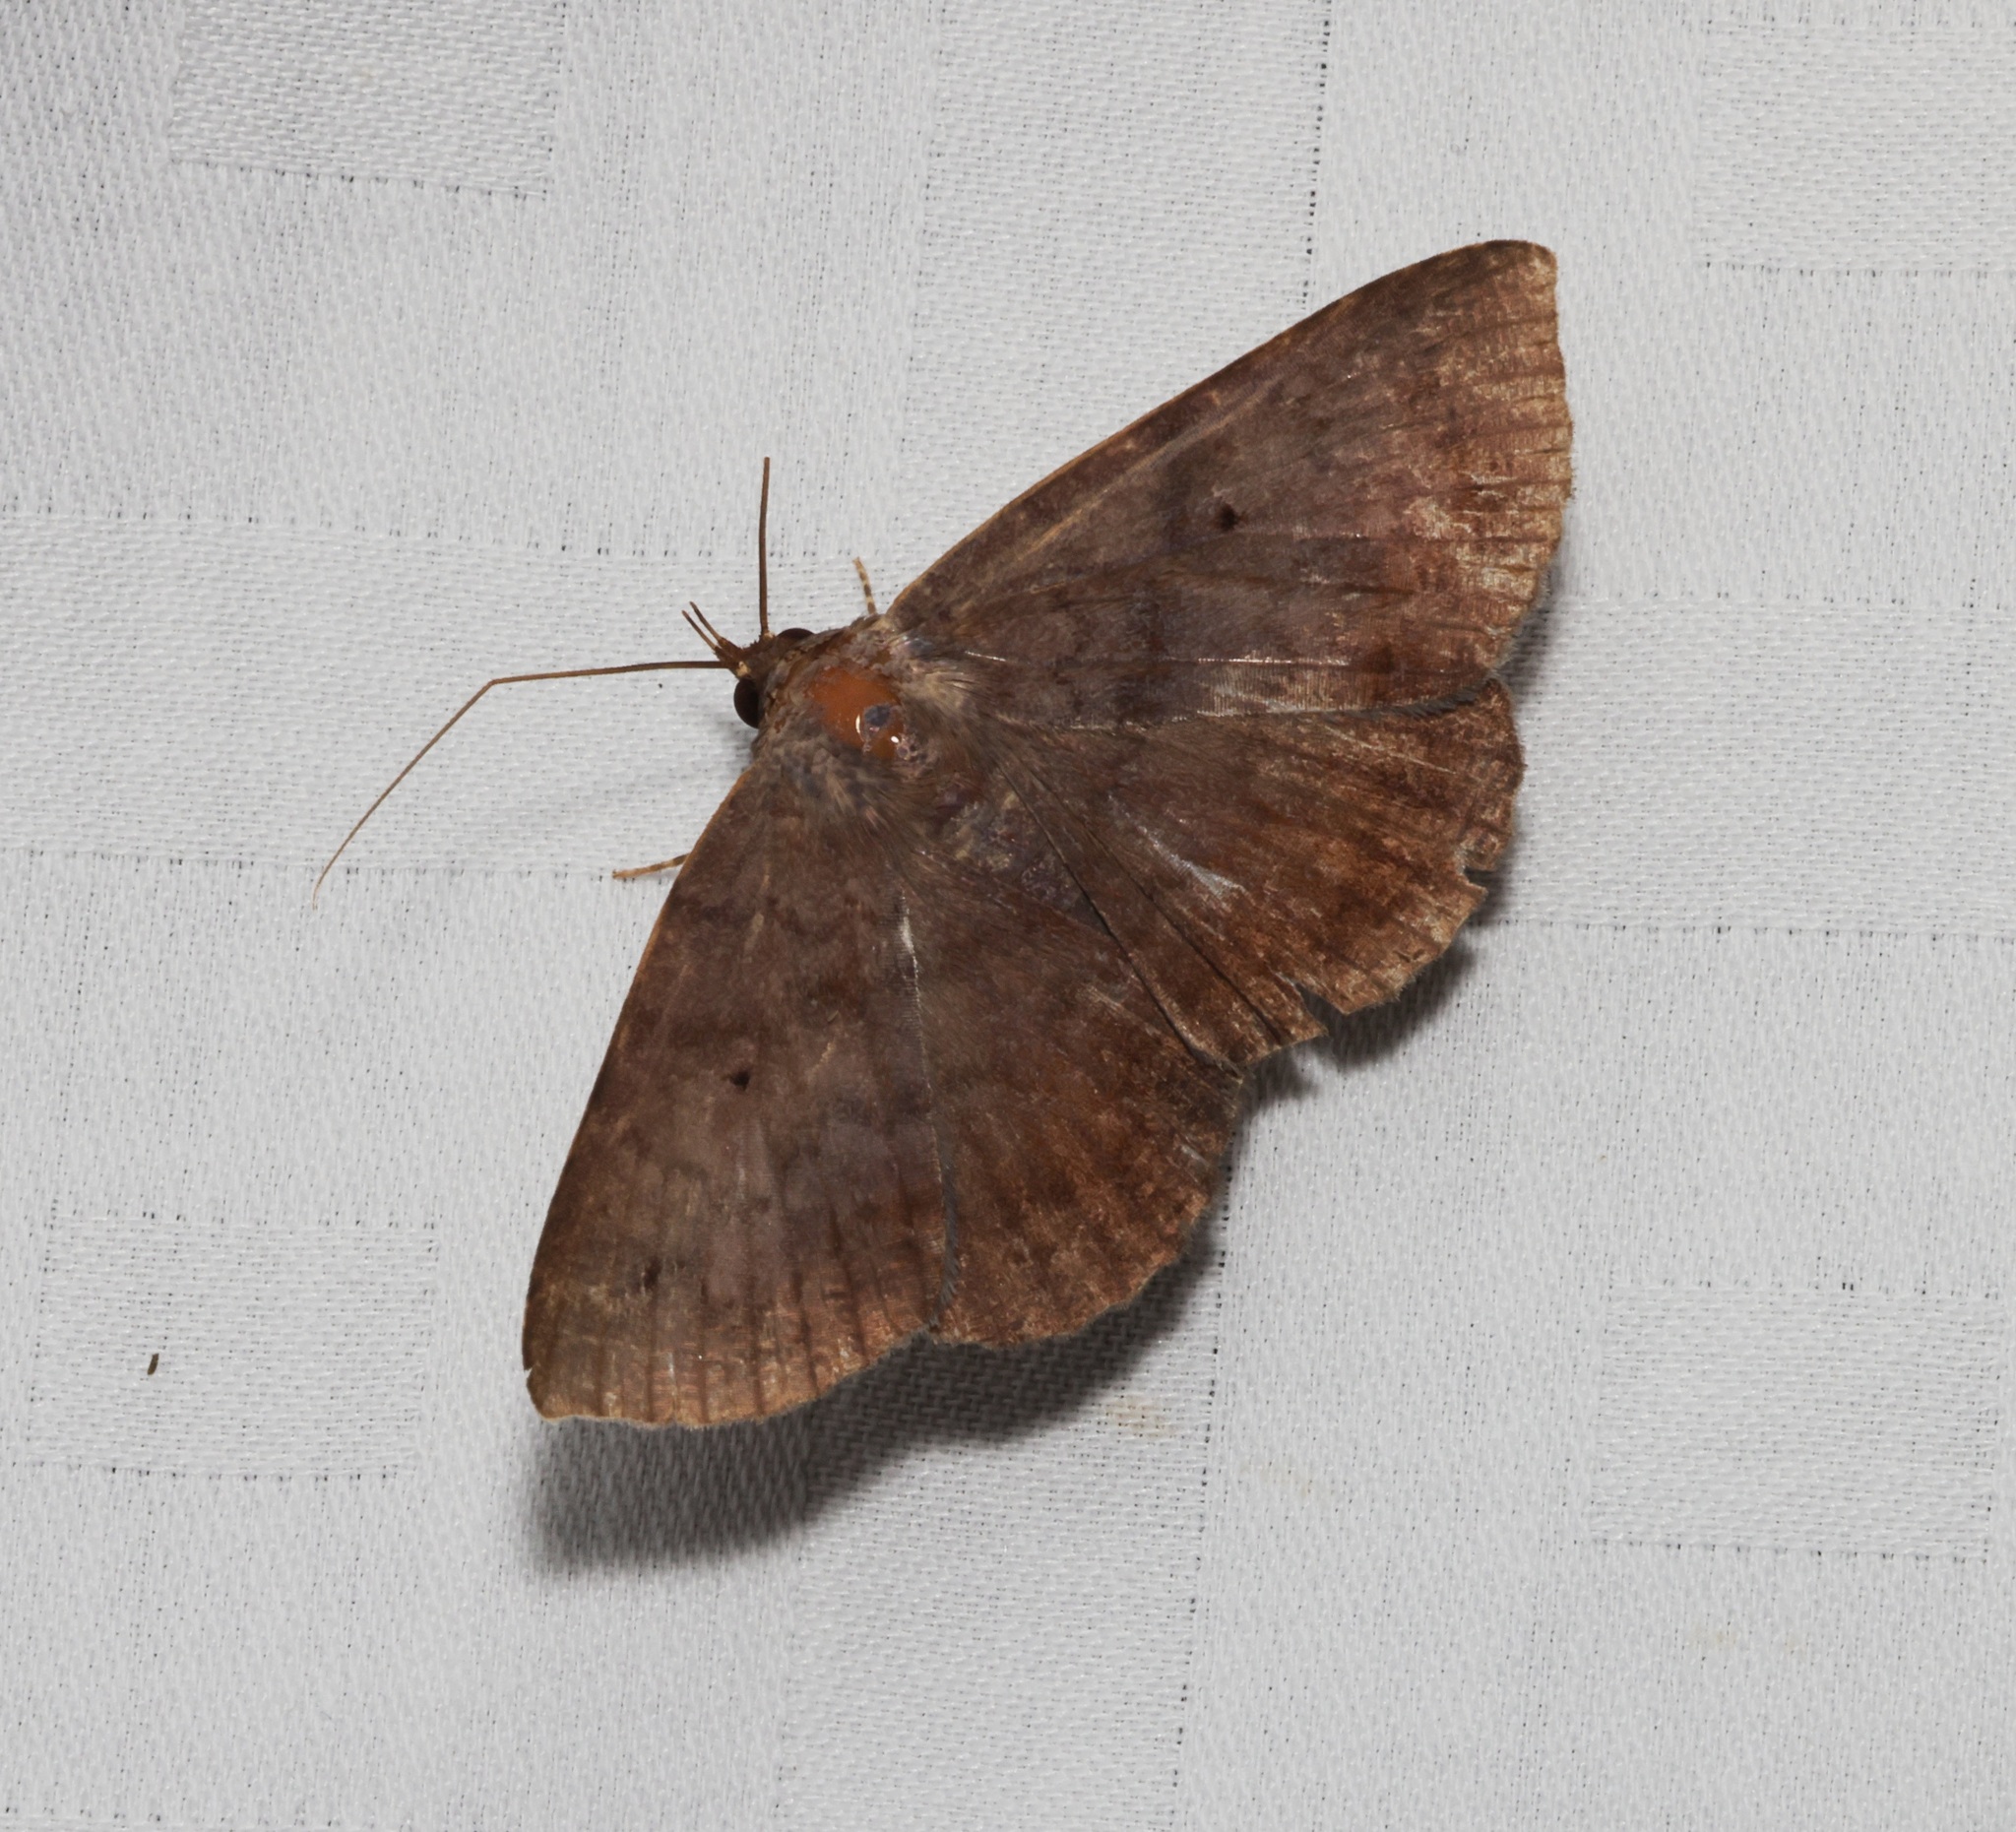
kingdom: Animalia
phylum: Arthropoda
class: Insecta
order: Lepidoptera
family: Erebidae
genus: Mecodina
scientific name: Mecodina bisignata
